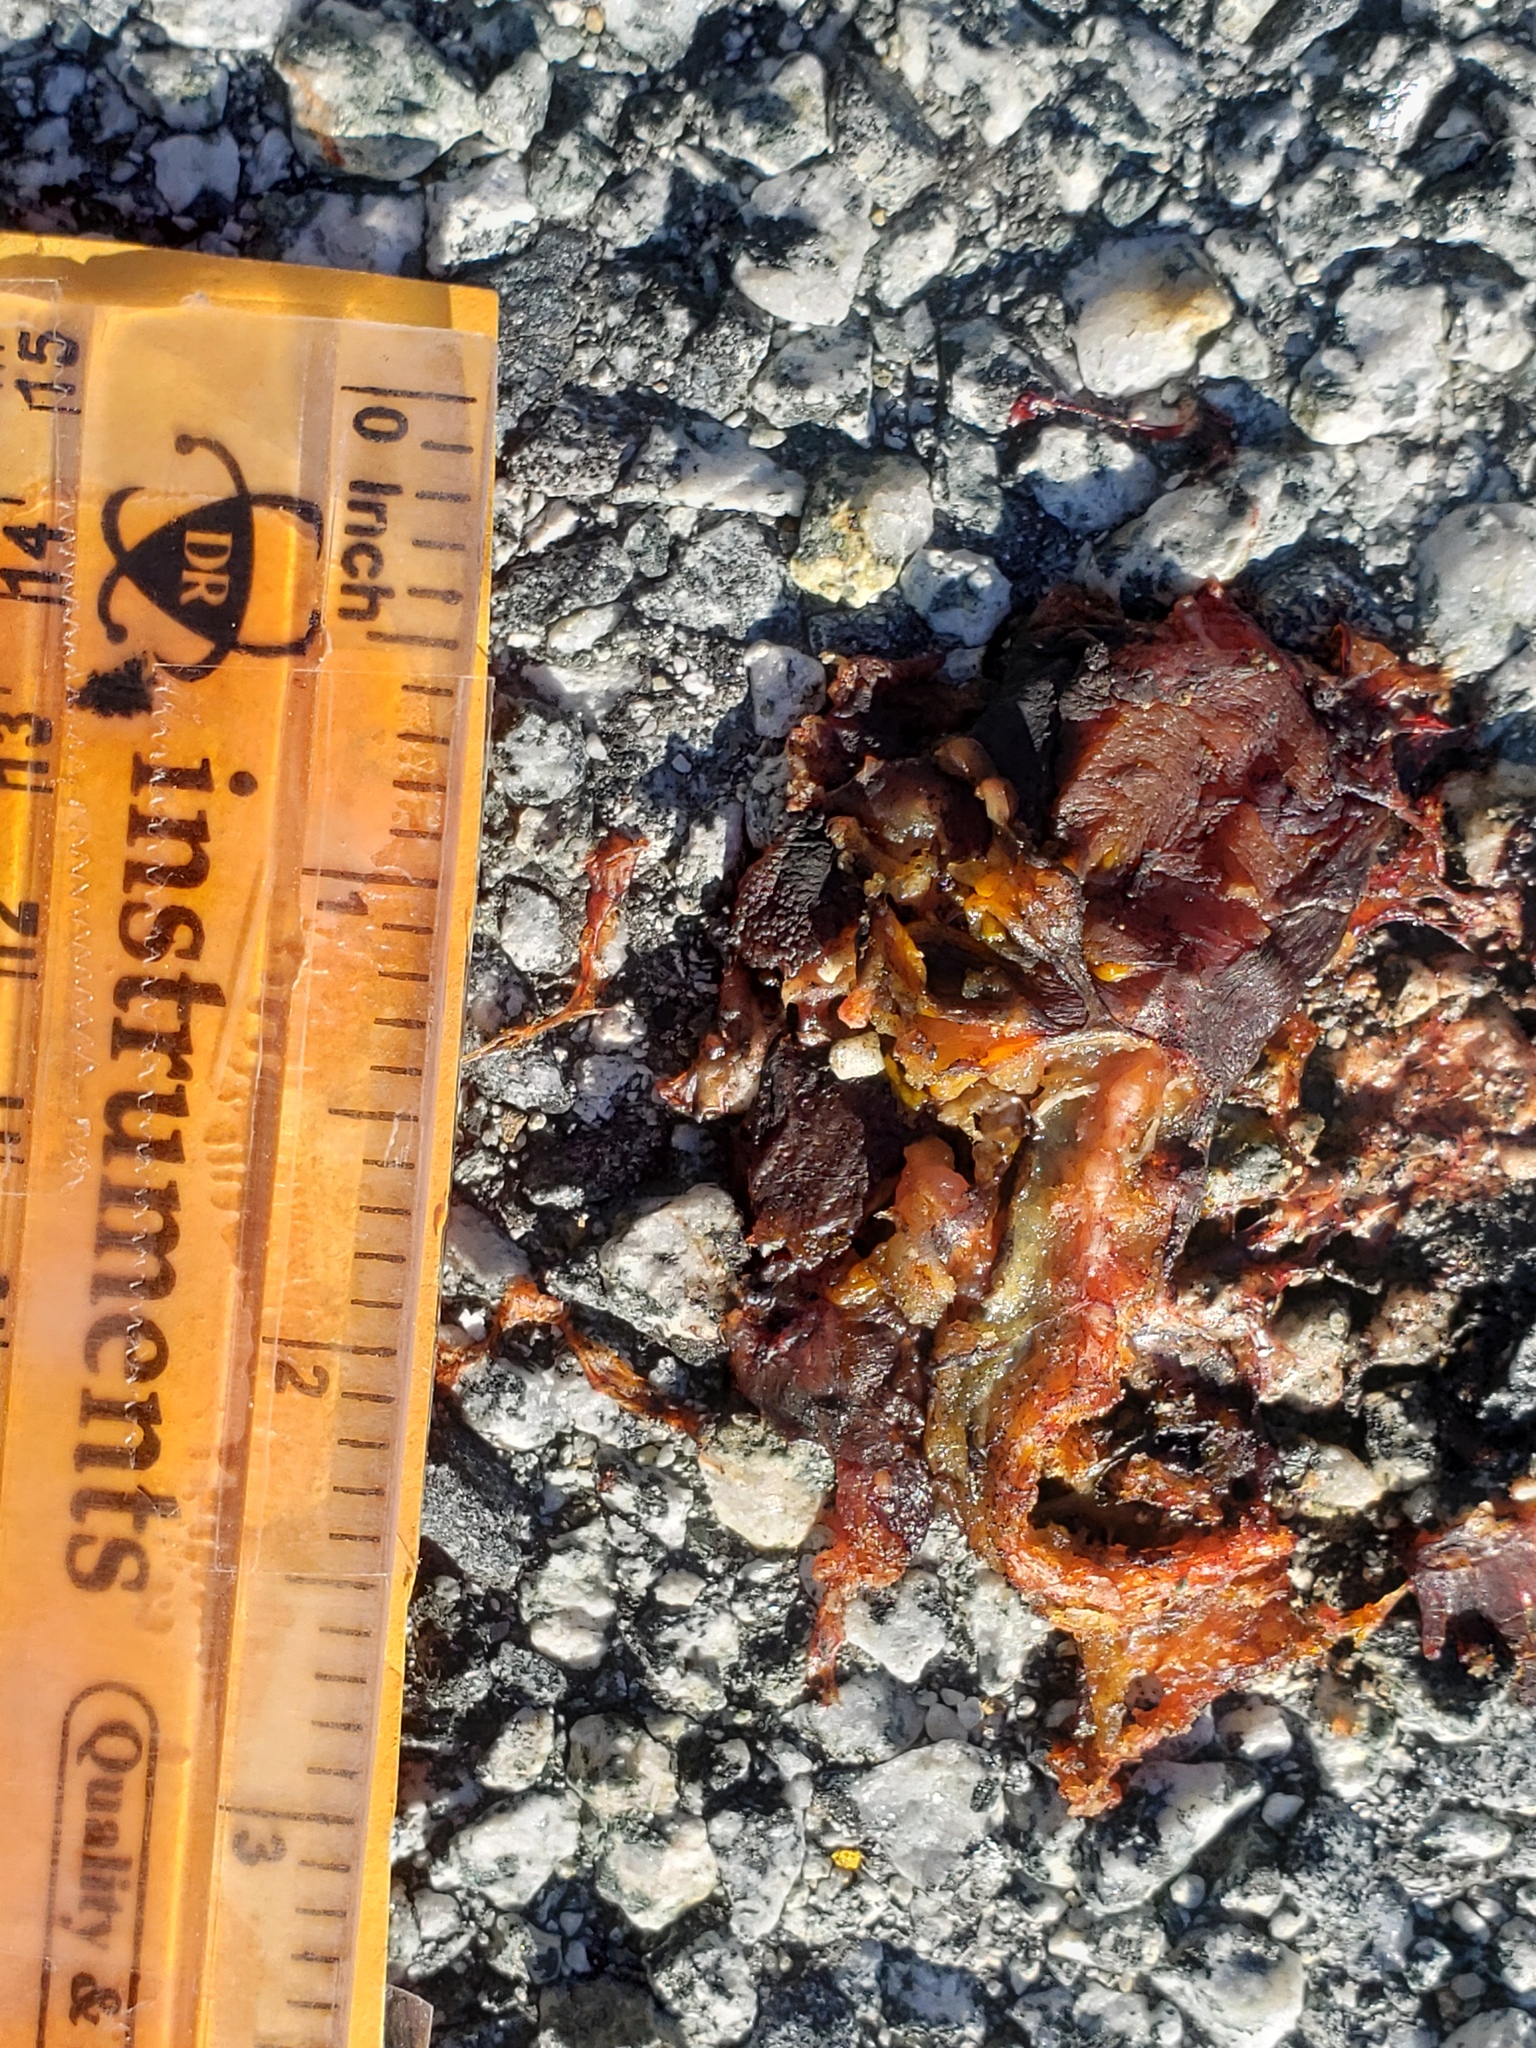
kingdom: Animalia
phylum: Chordata
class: Amphibia
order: Caudata
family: Salamandridae
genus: Taricha
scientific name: Taricha
